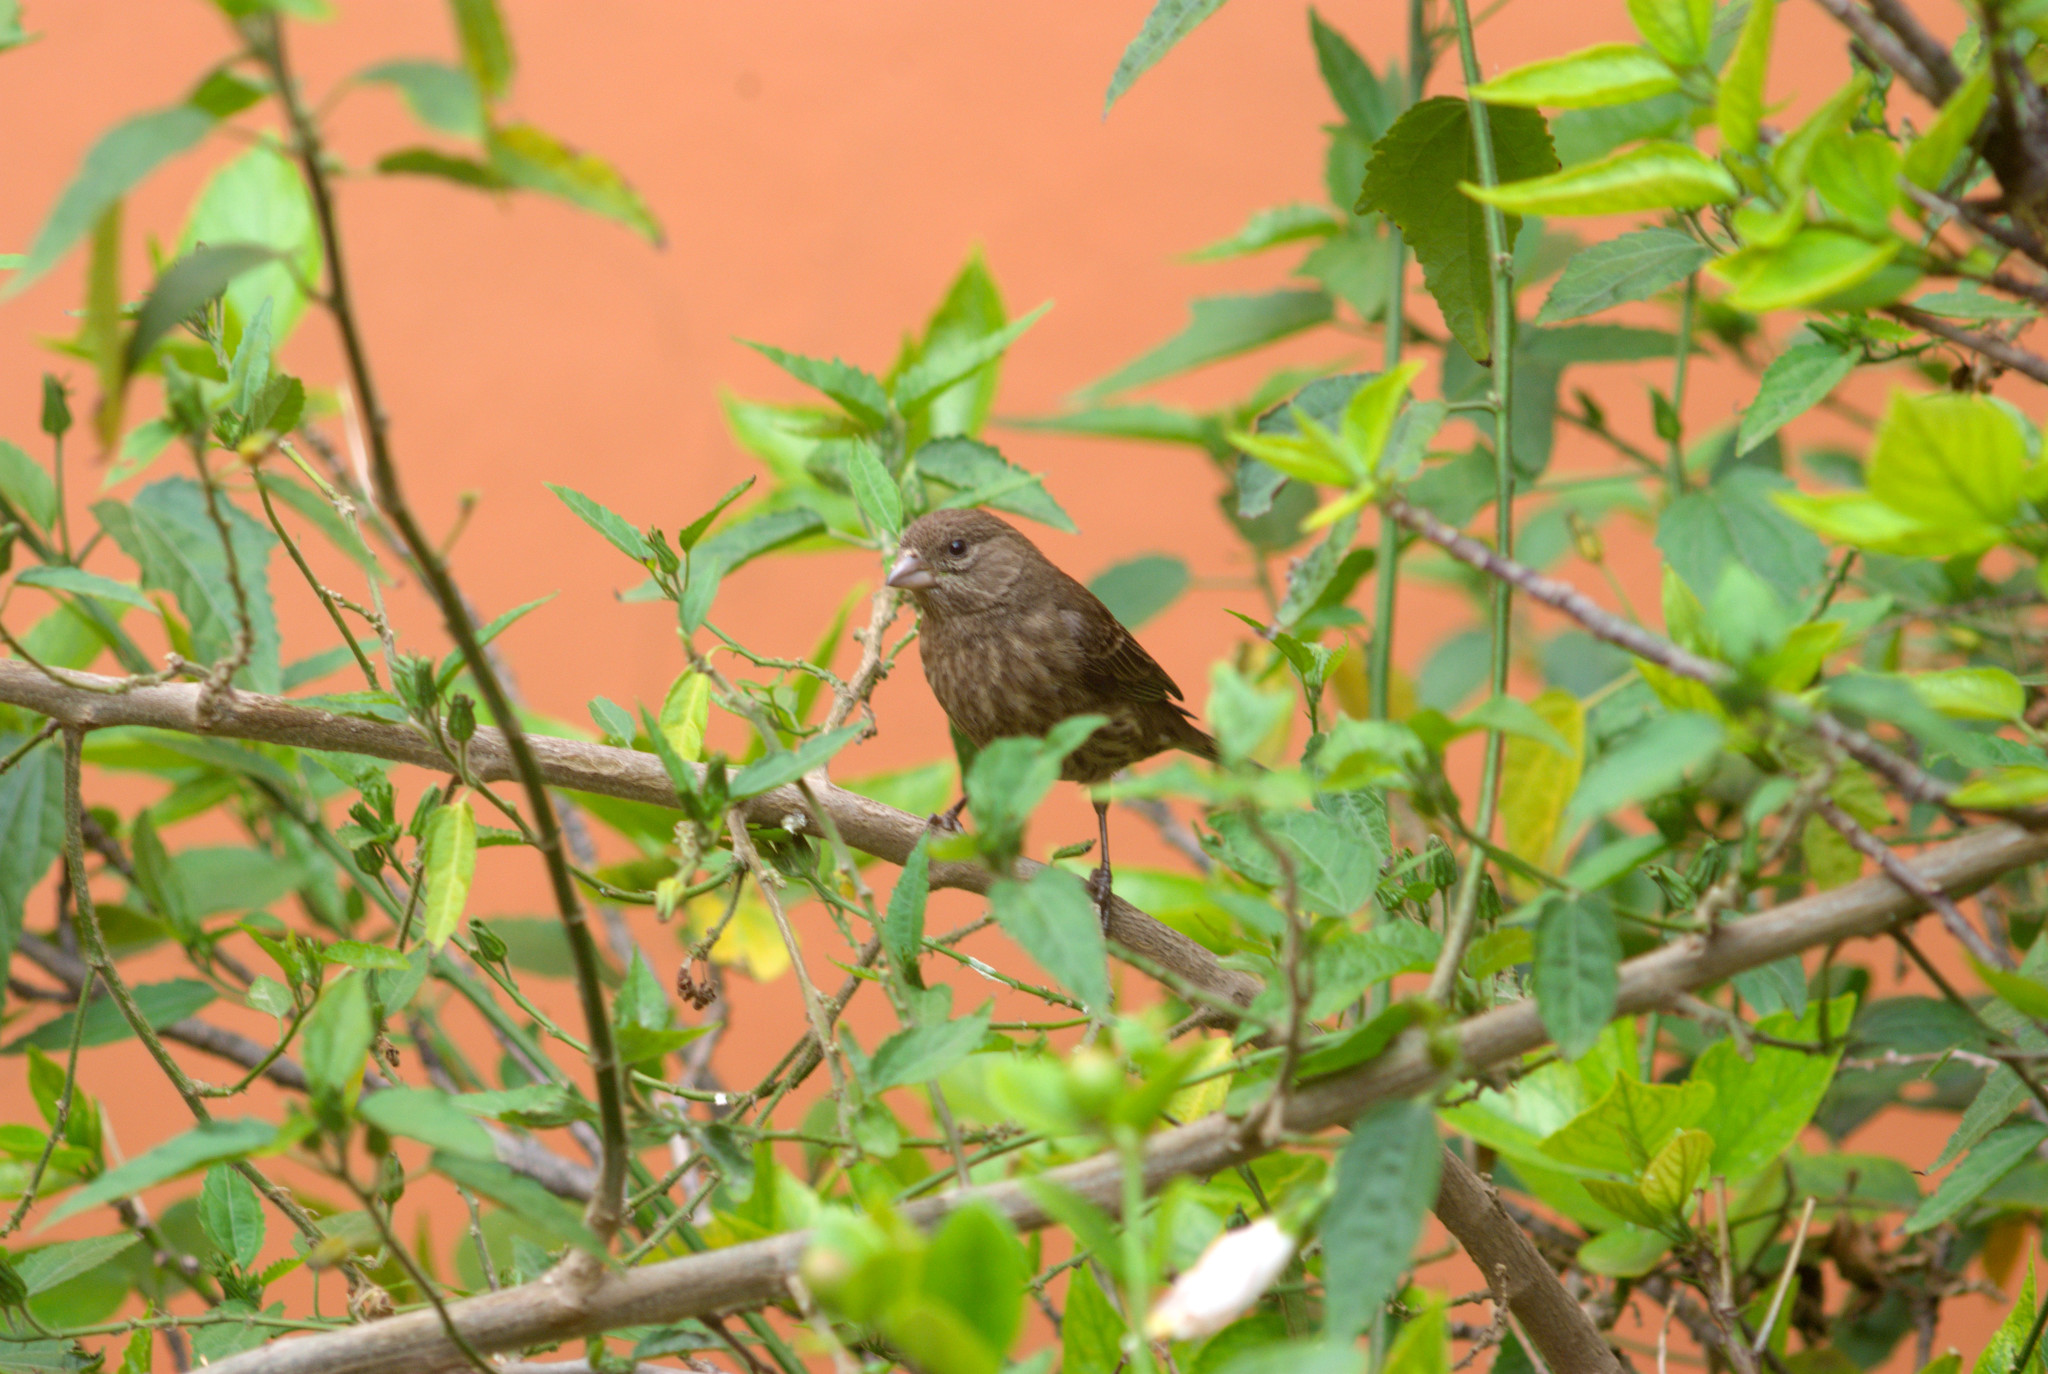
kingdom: Animalia
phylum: Chordata
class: Aves
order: Passeriformes
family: Fringillidae
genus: Haemorhous
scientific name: Haemorhous mexicanus
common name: House finch
